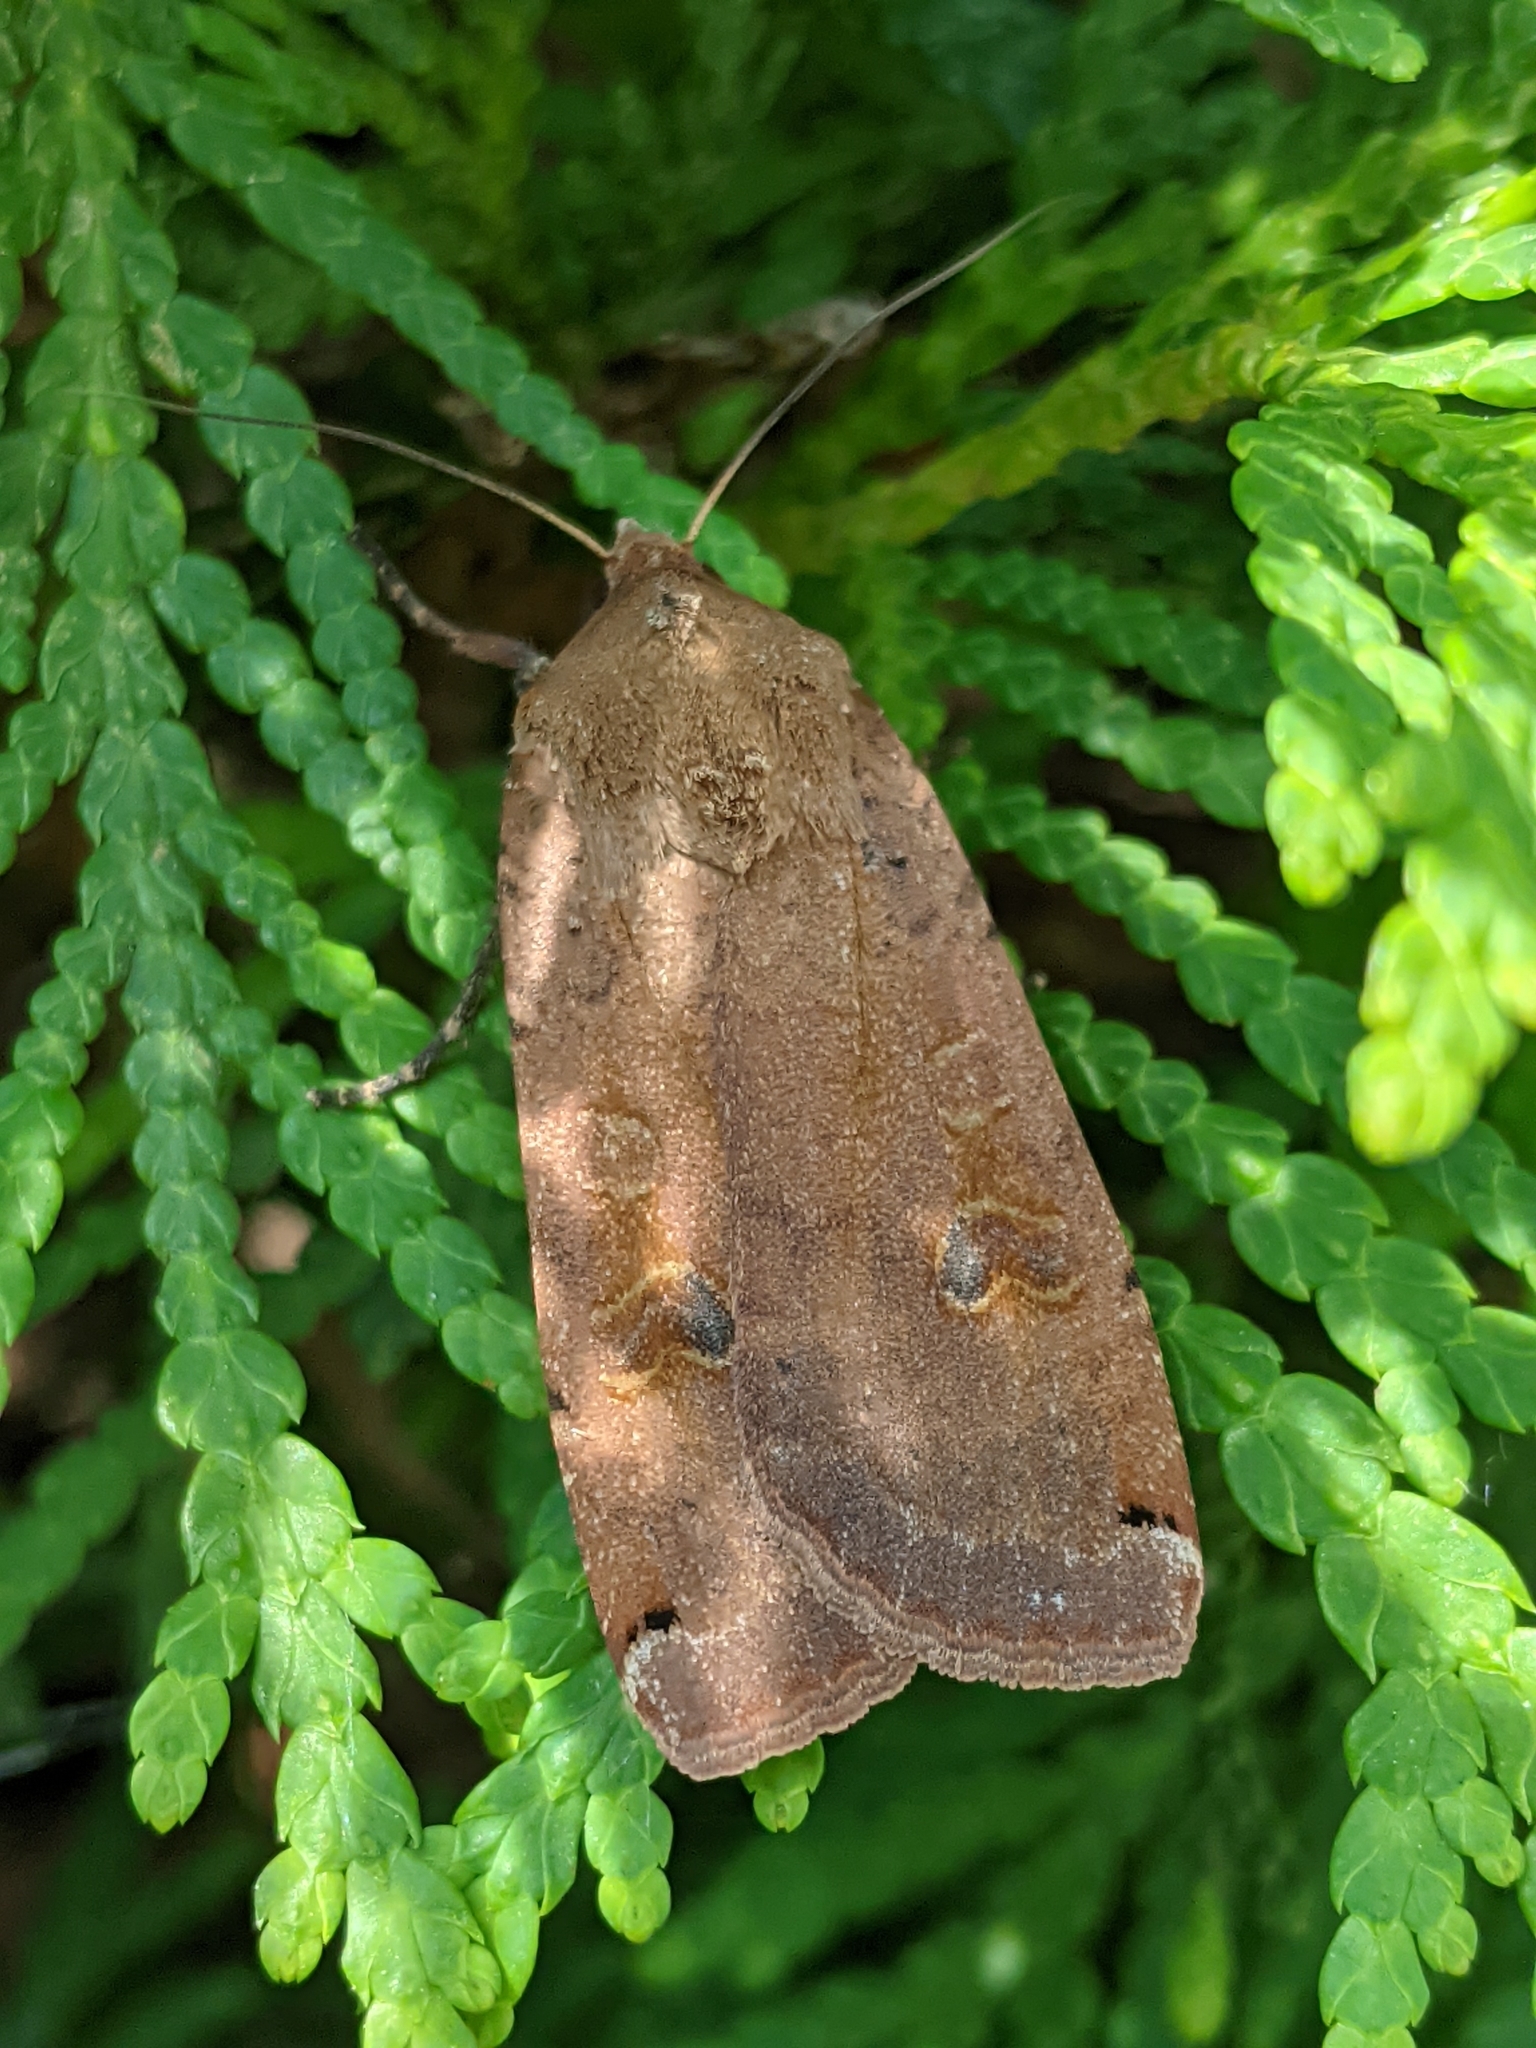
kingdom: Animalia
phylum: Arthropoda
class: Insecta
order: Lepidoptera
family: Noctuidae
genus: Noctua
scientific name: Noctua pronuba
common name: Large yellow underwing
